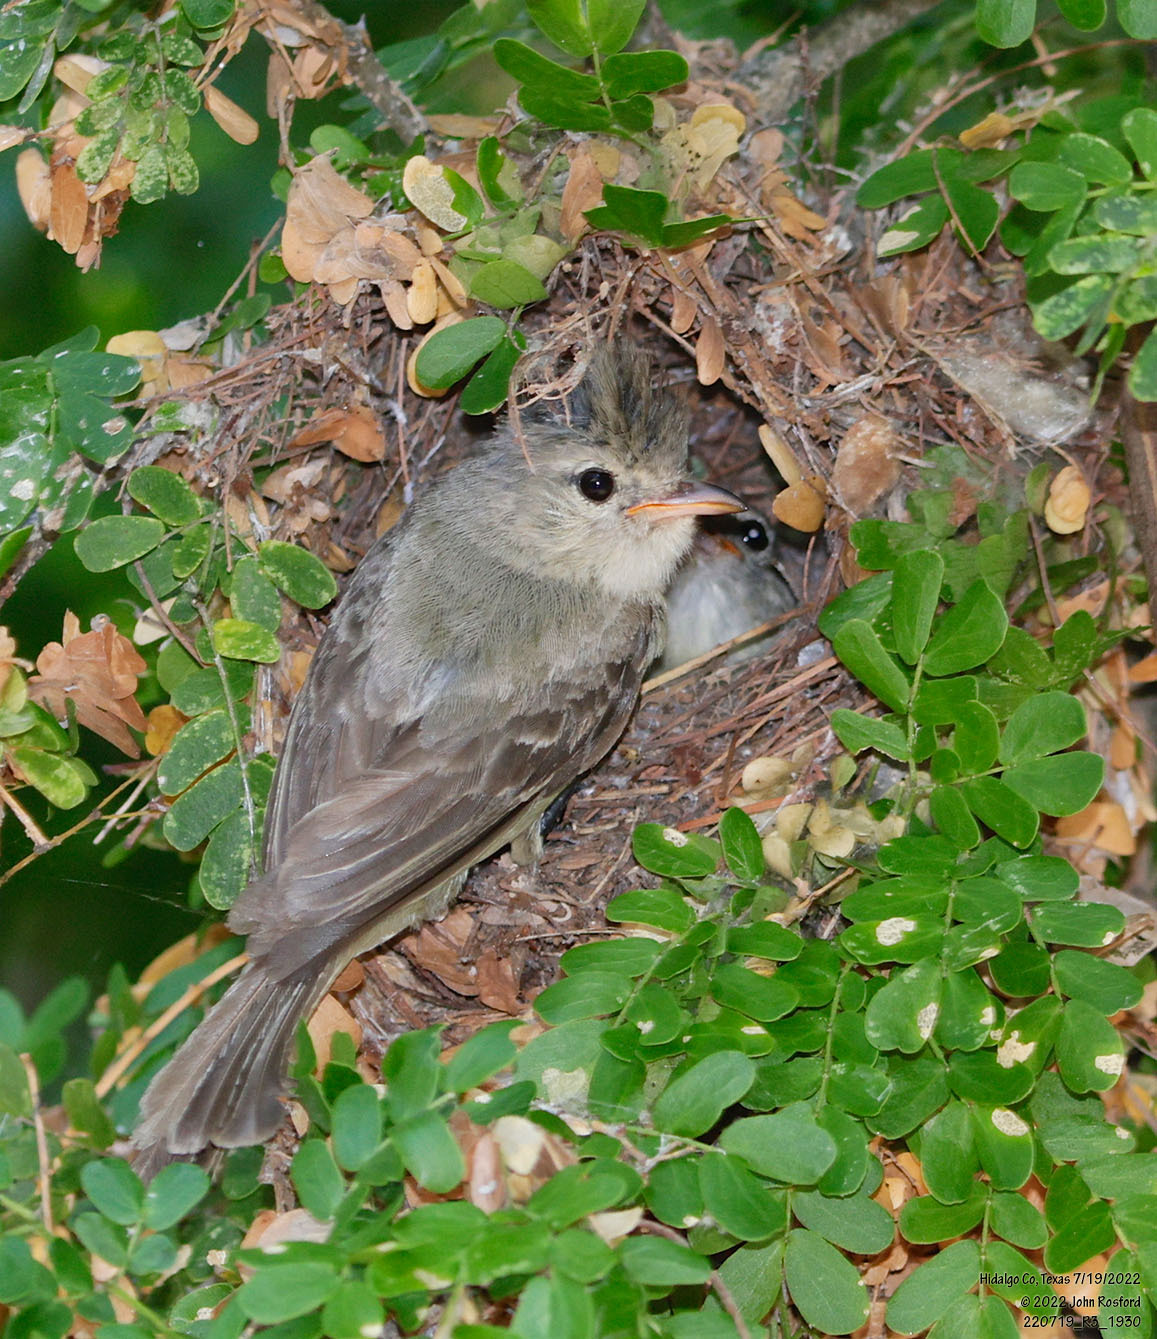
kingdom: Animalia
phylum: Chordata
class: Aves
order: Passeriformes
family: Tyrannidae
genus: Camptostoma
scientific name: Camptostoma imberbe
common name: Northern beardless-tyrannulet
